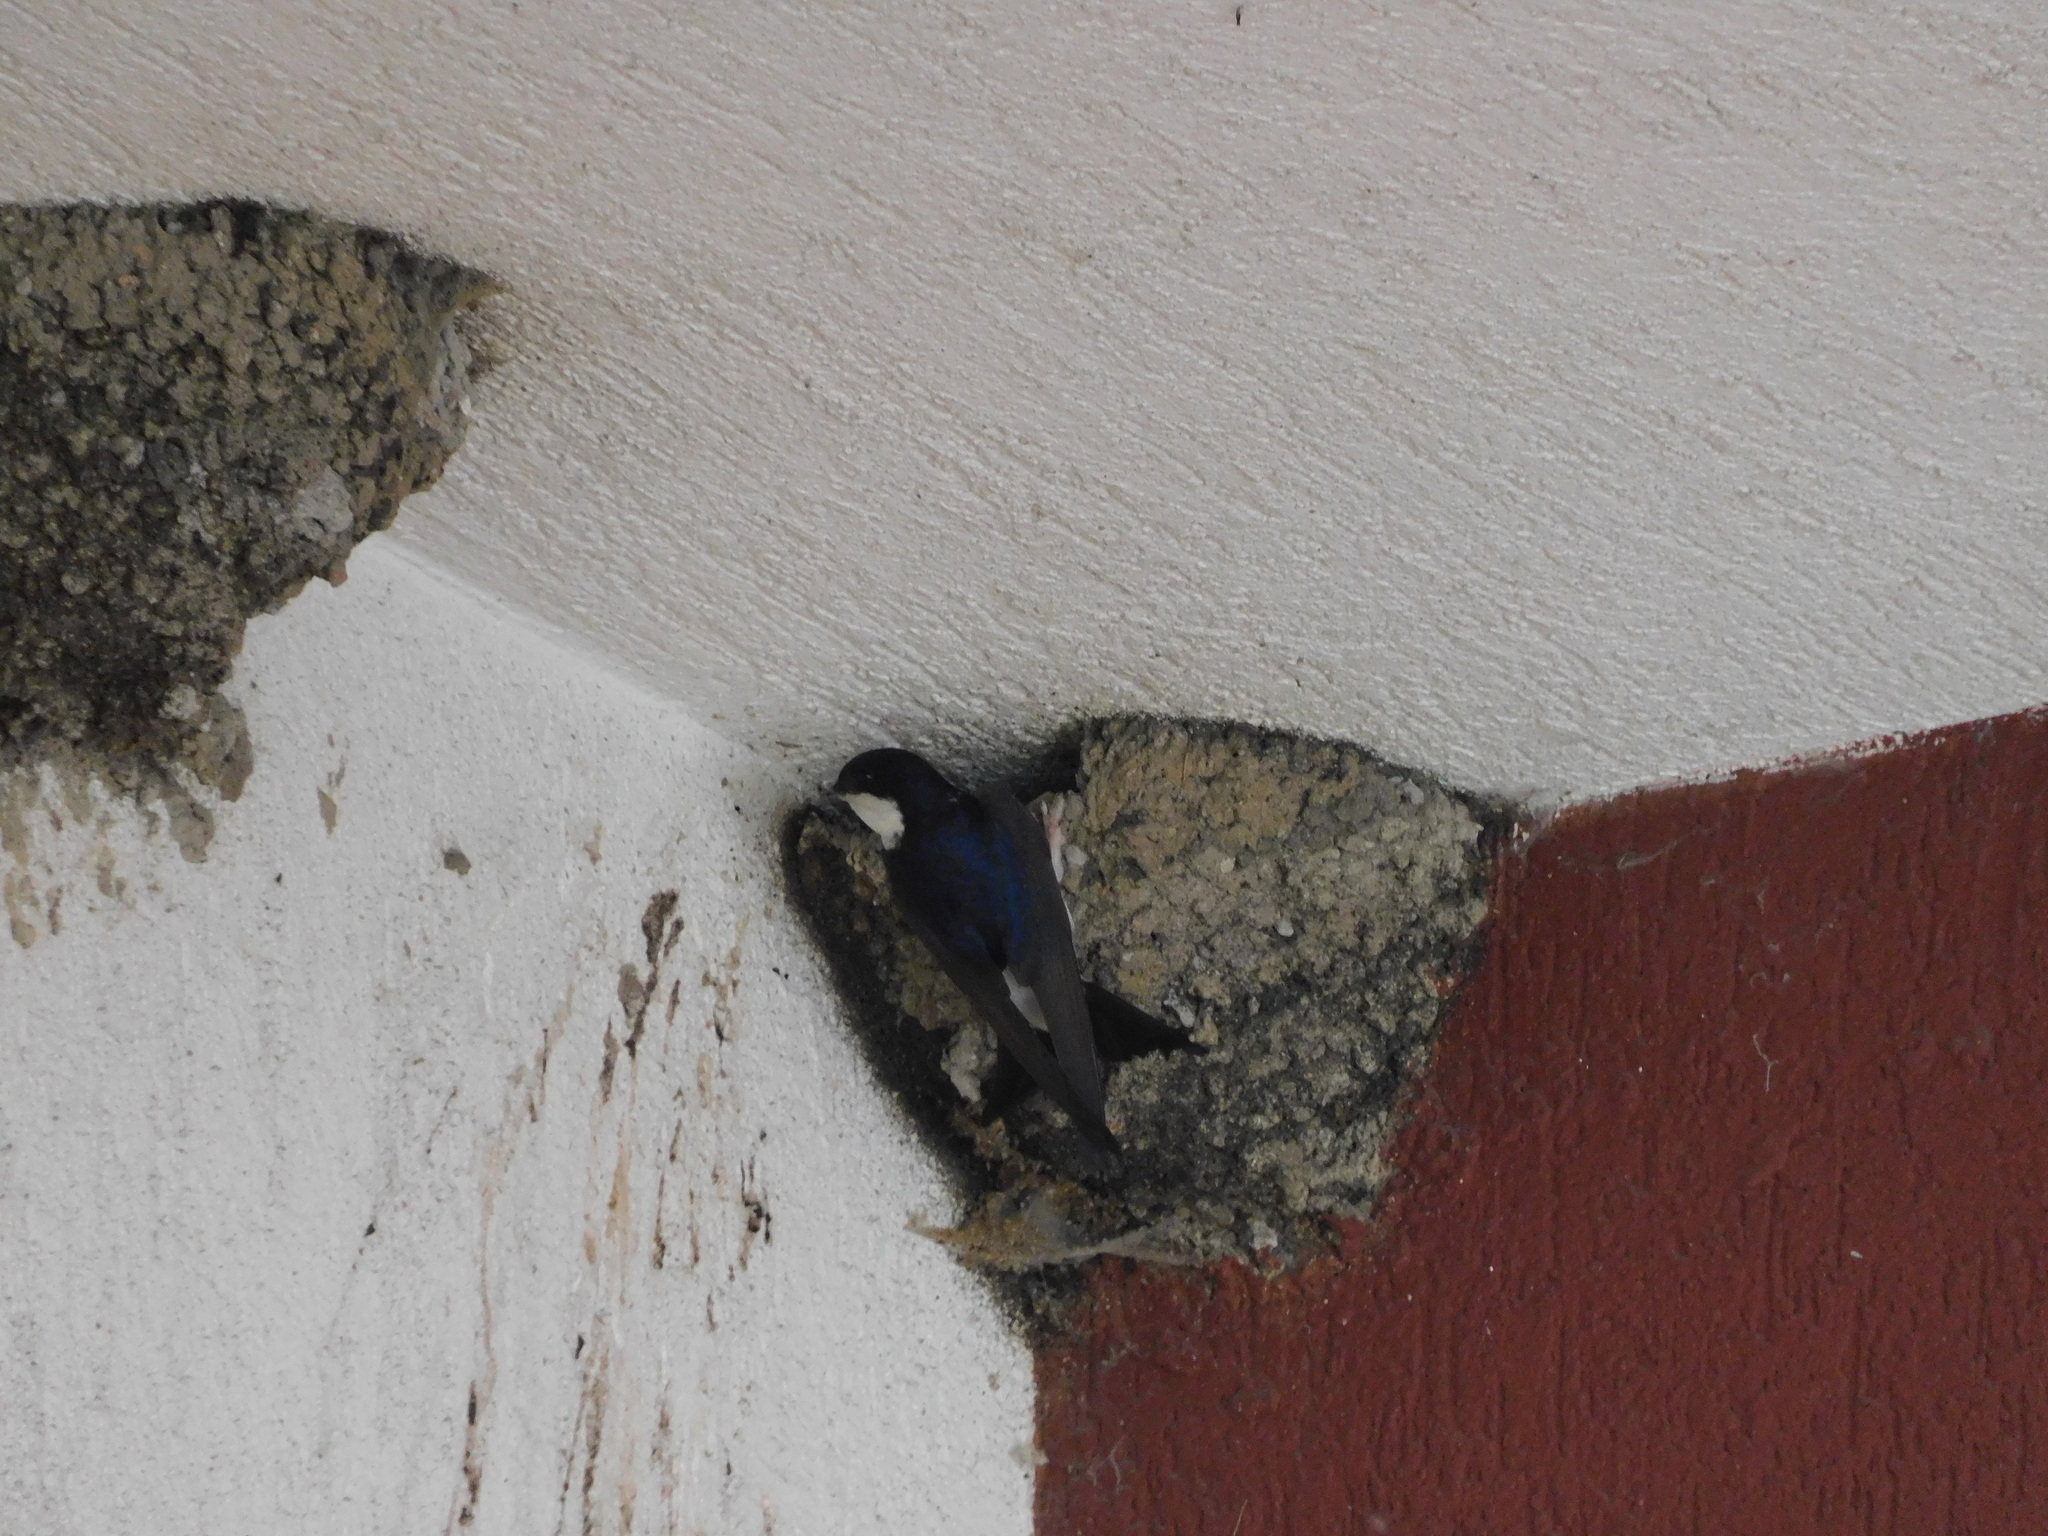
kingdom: Animalia
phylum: Chordata
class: Aves
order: Passeriformes
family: Hirundinidae
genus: Delichon
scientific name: Delichon urbicum
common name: Common house martin
